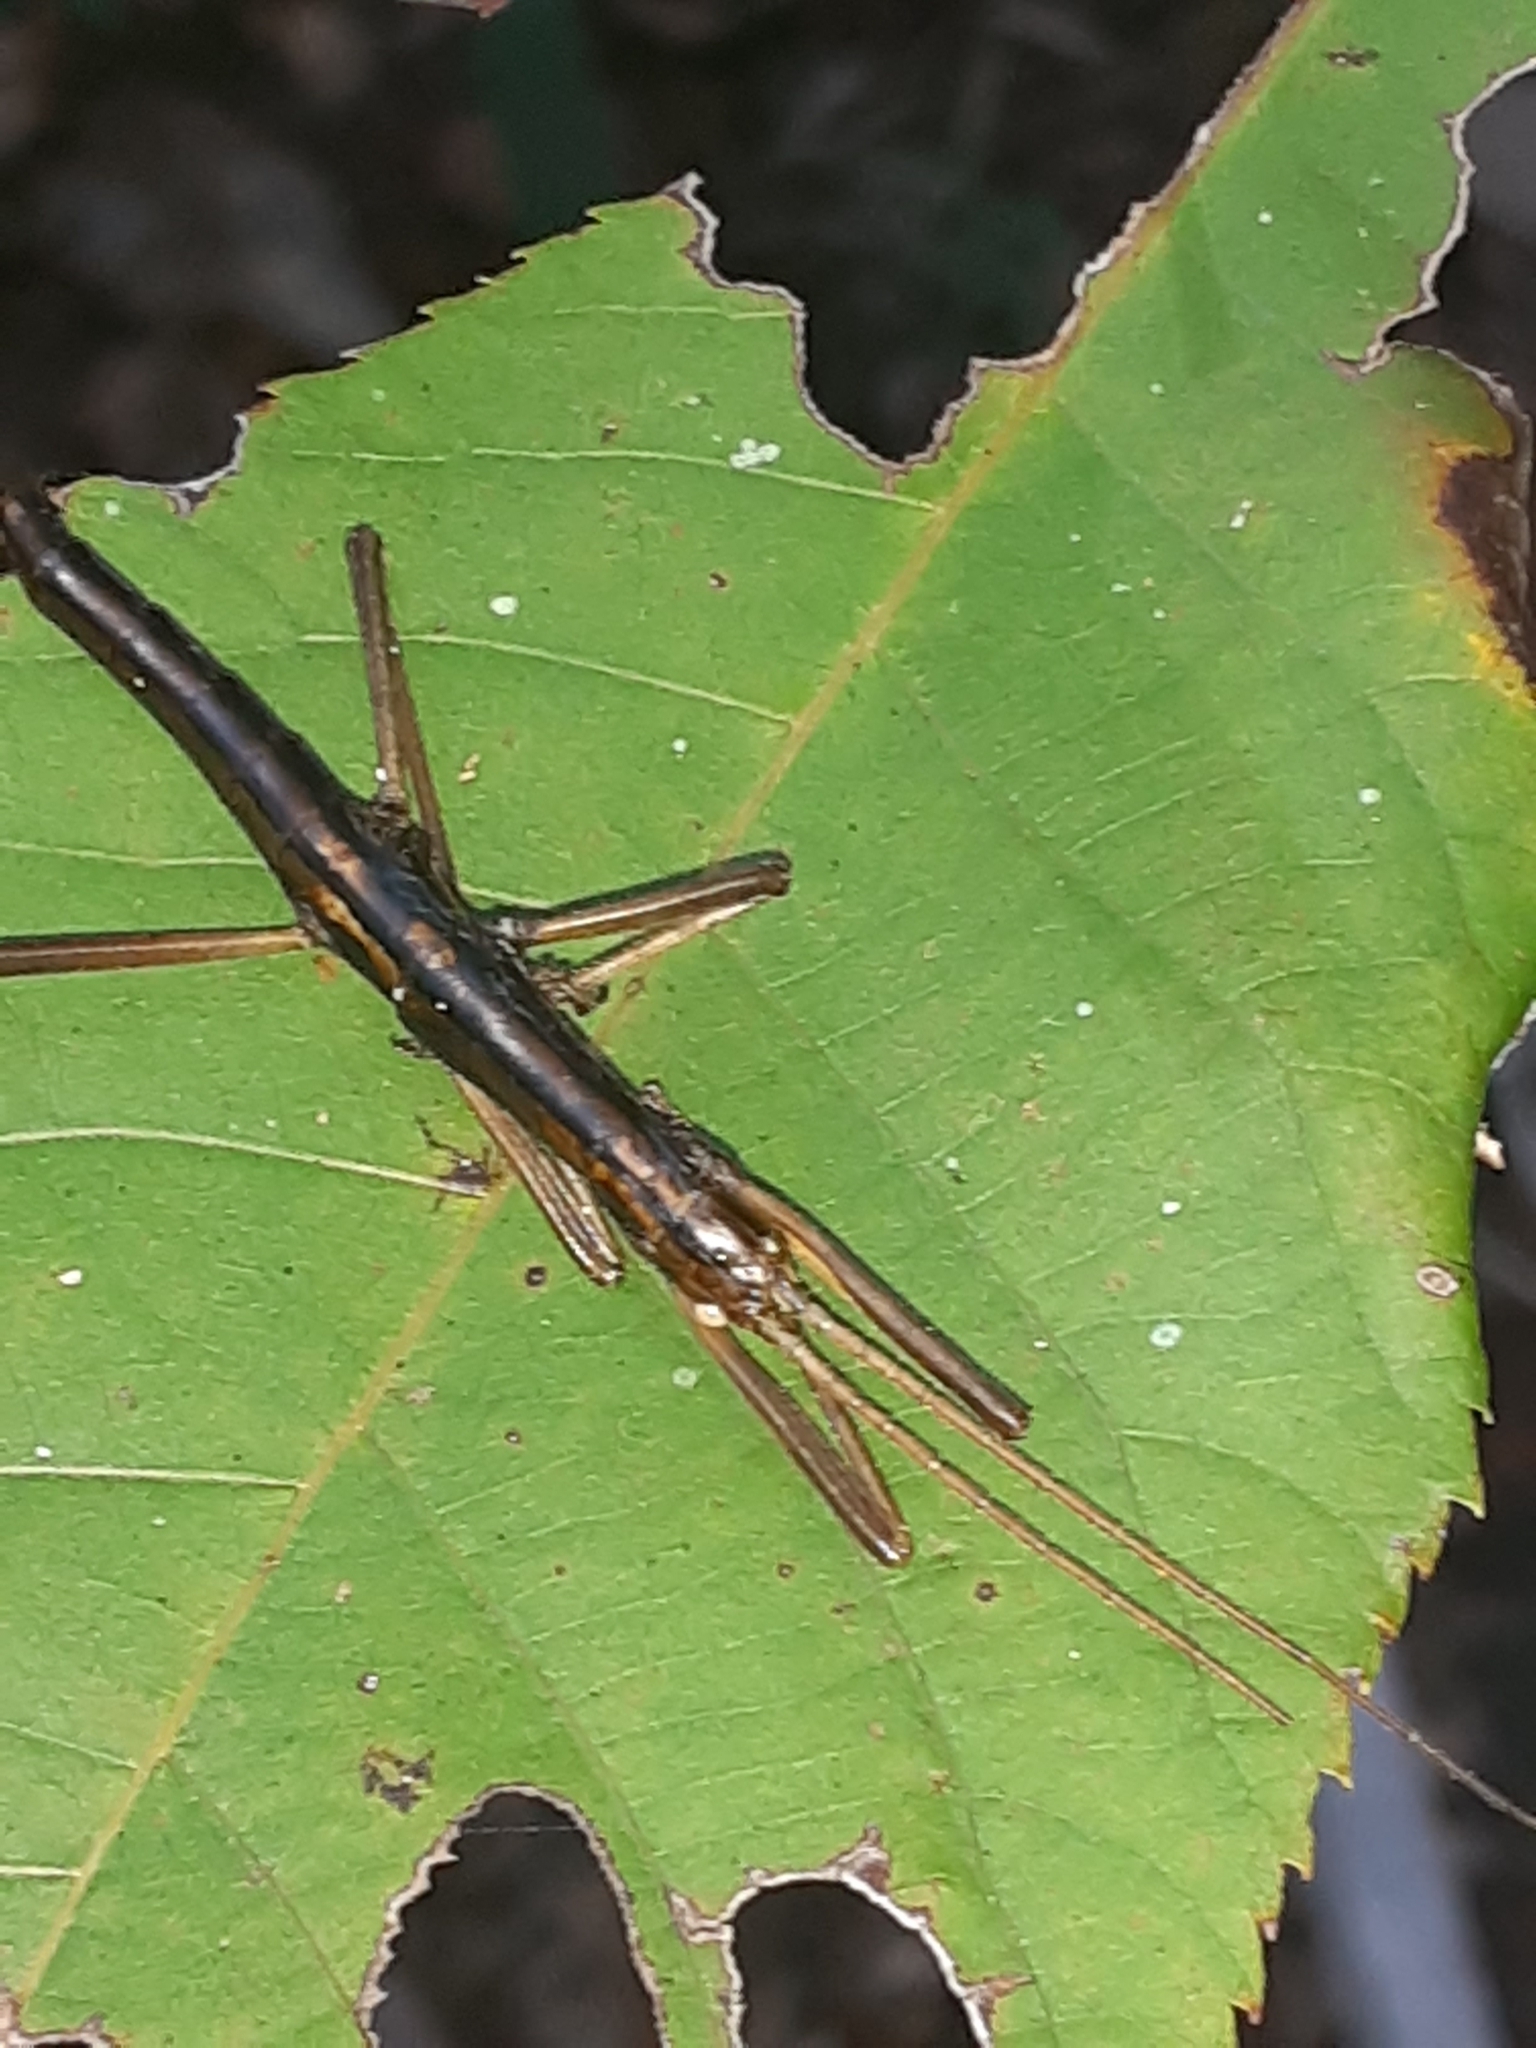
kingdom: Animalia
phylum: Arthropoda
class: Insecta
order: Phasmida
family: Pseudophasmatidae
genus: Anisomorpha
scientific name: Anisomorpha buprestoides
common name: Florida stick insect
